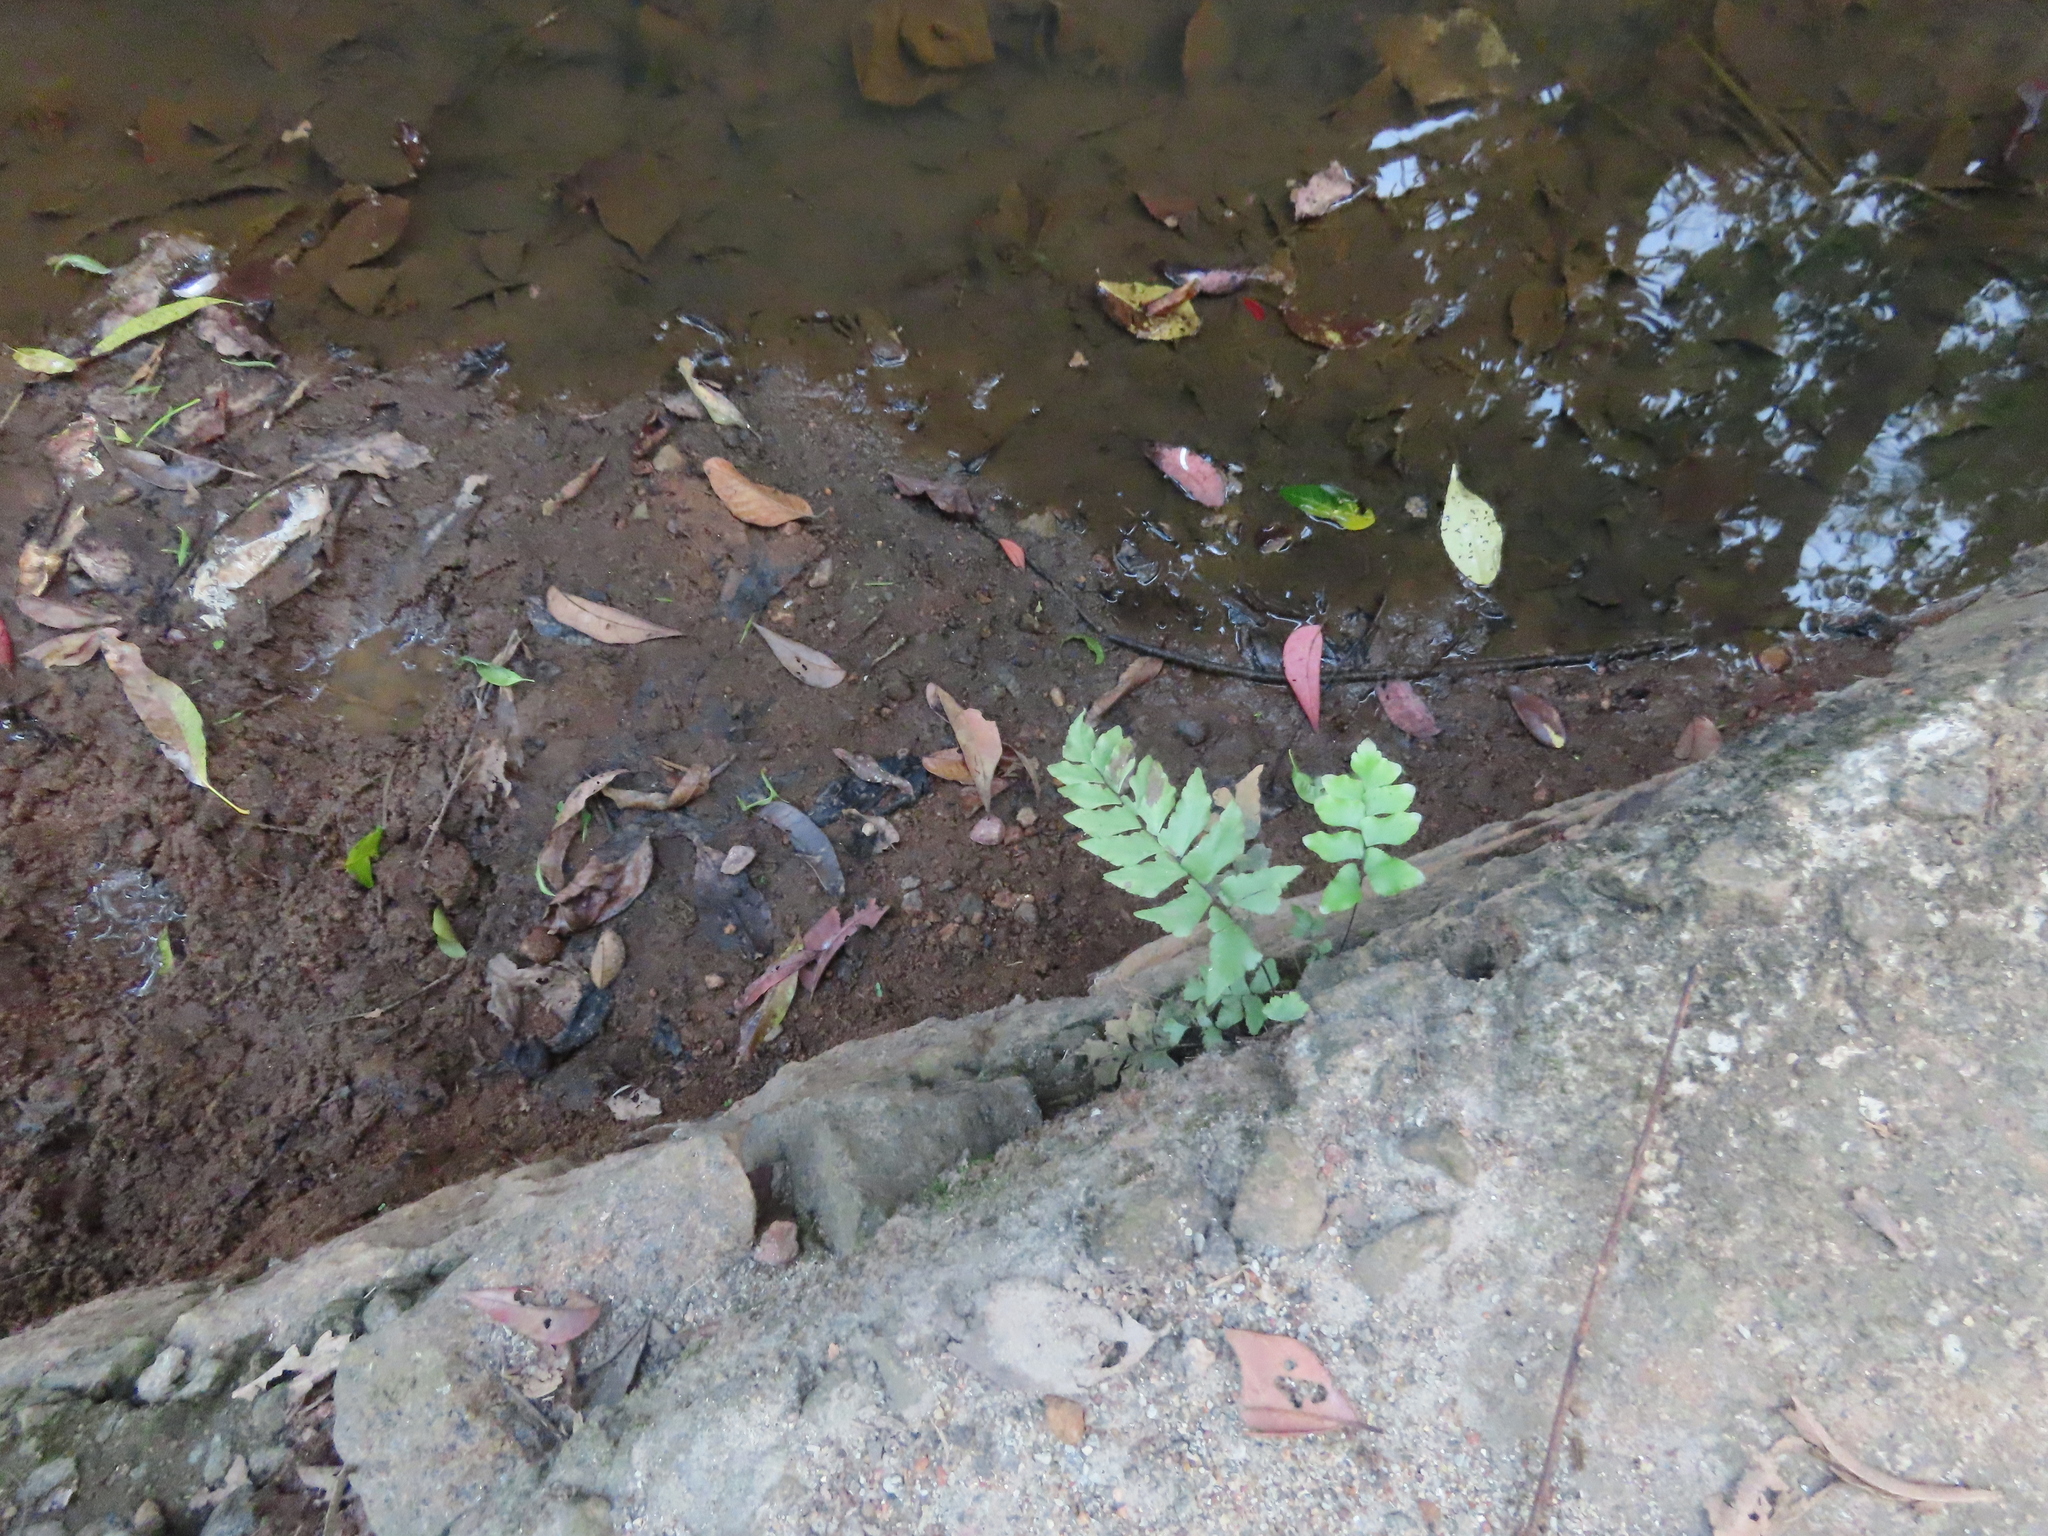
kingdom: Plantae
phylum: Tracheophyta
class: Polypodiopsida
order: Polypodiales
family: Pteridaceae
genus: Adiantum
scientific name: Adiantum latifolium
